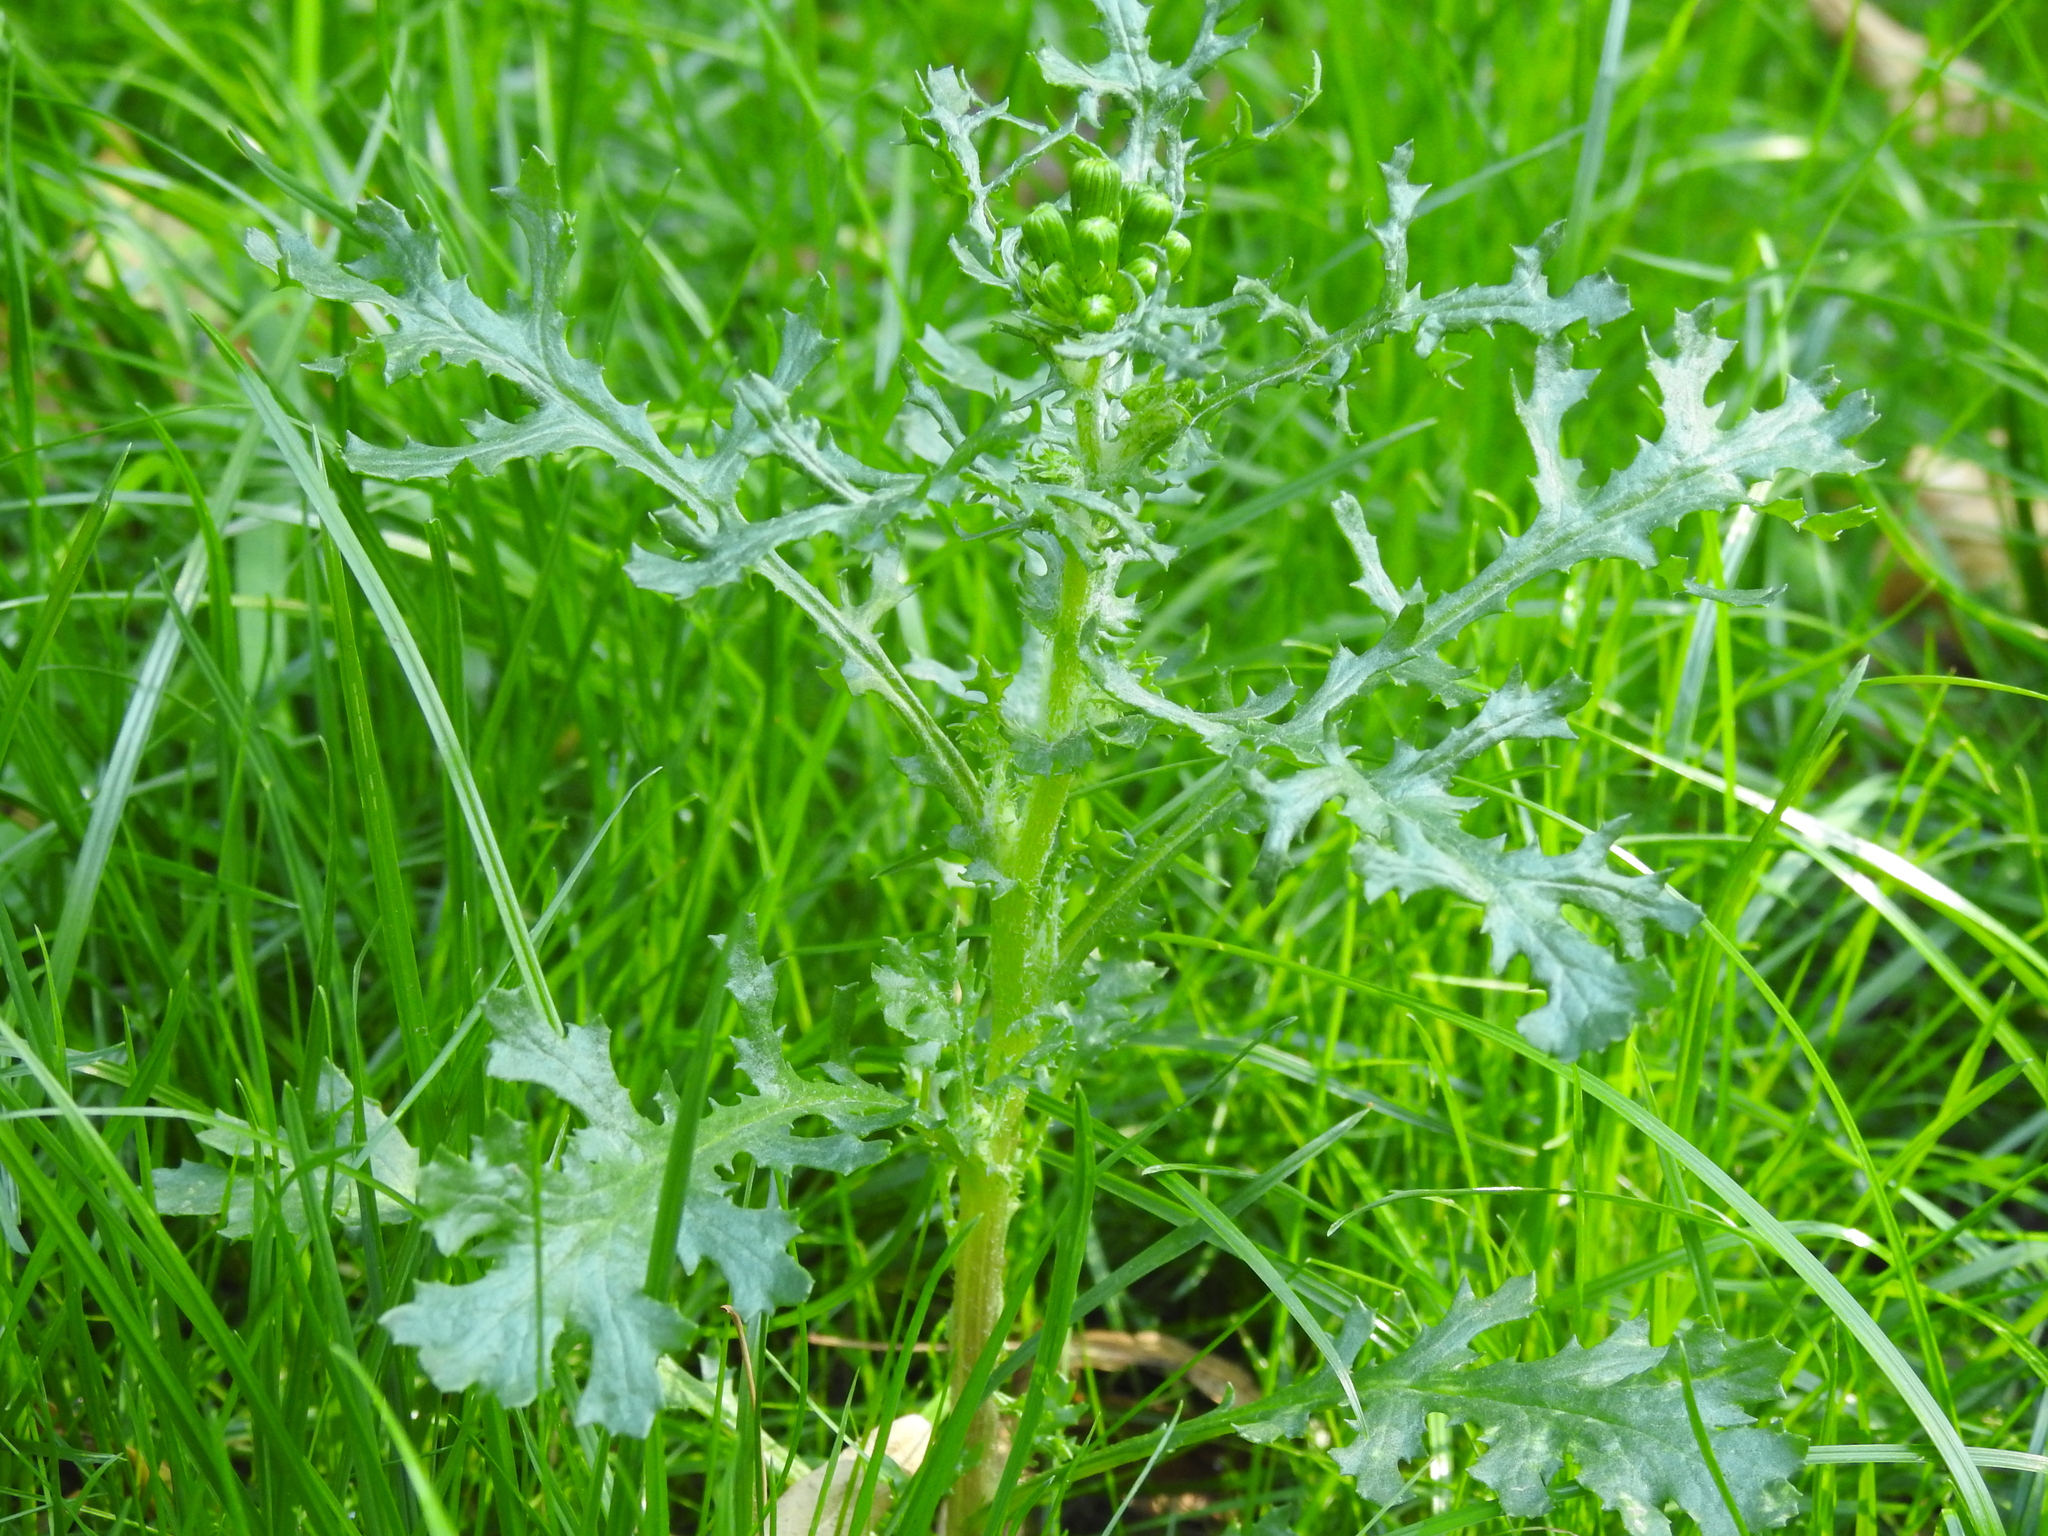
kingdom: Plantae
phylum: Tracheophyta
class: Magnoliopsida
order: Asterales
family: Asteraceae
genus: Senecio
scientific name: Senecio vulgaris
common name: Old-man-in-the-spring
